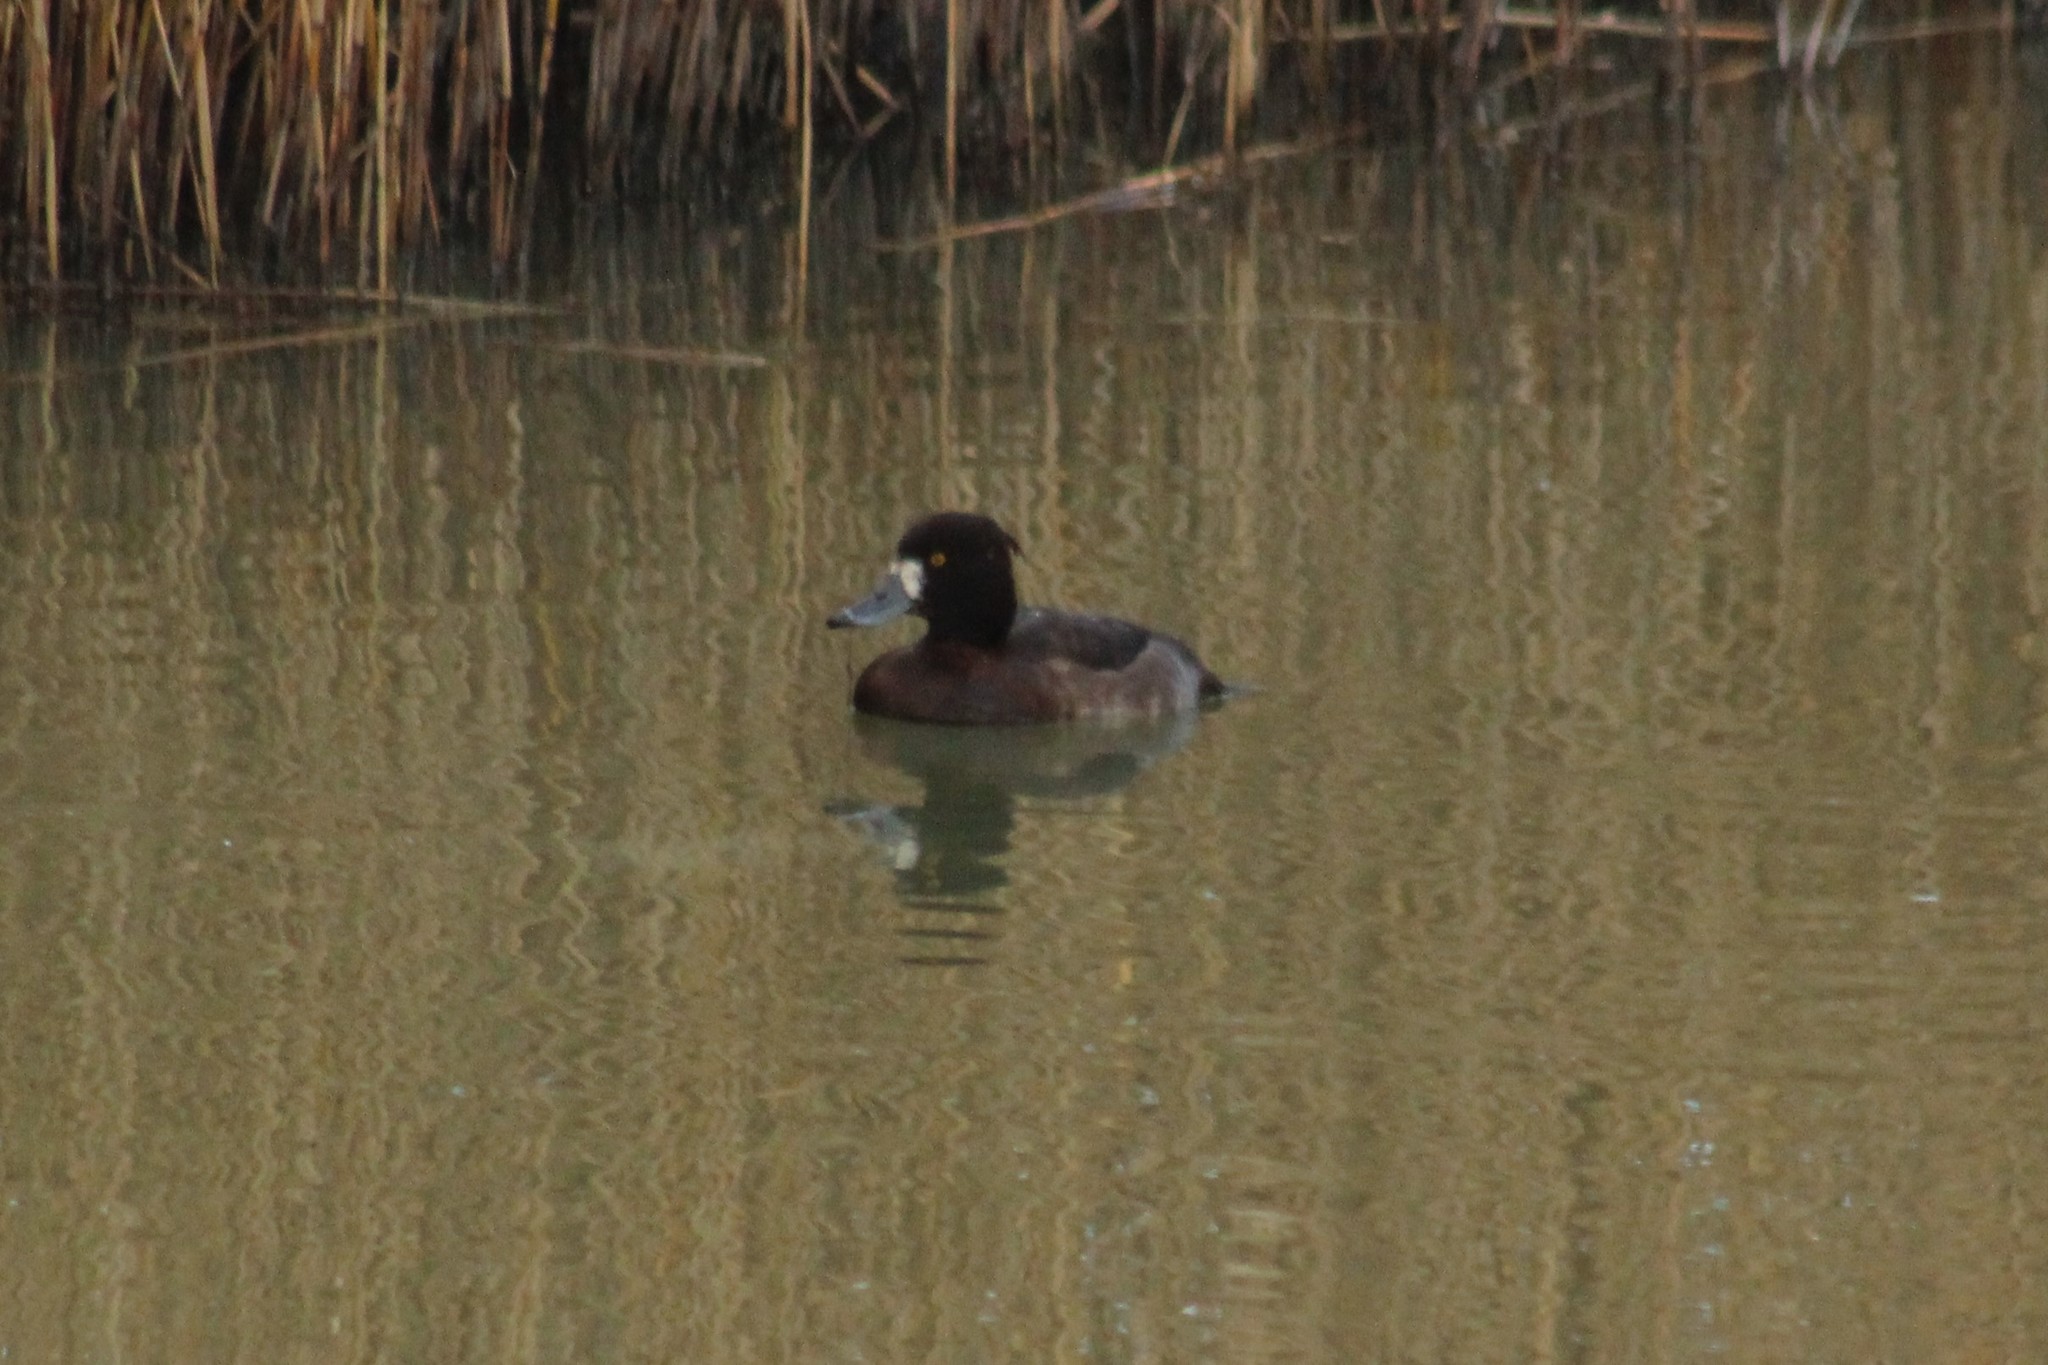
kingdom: Animalia
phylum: Chordata
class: Aves
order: Anseriformes
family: Anatidae
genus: Aythya
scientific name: Aythya fuligula
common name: Tufted duck
